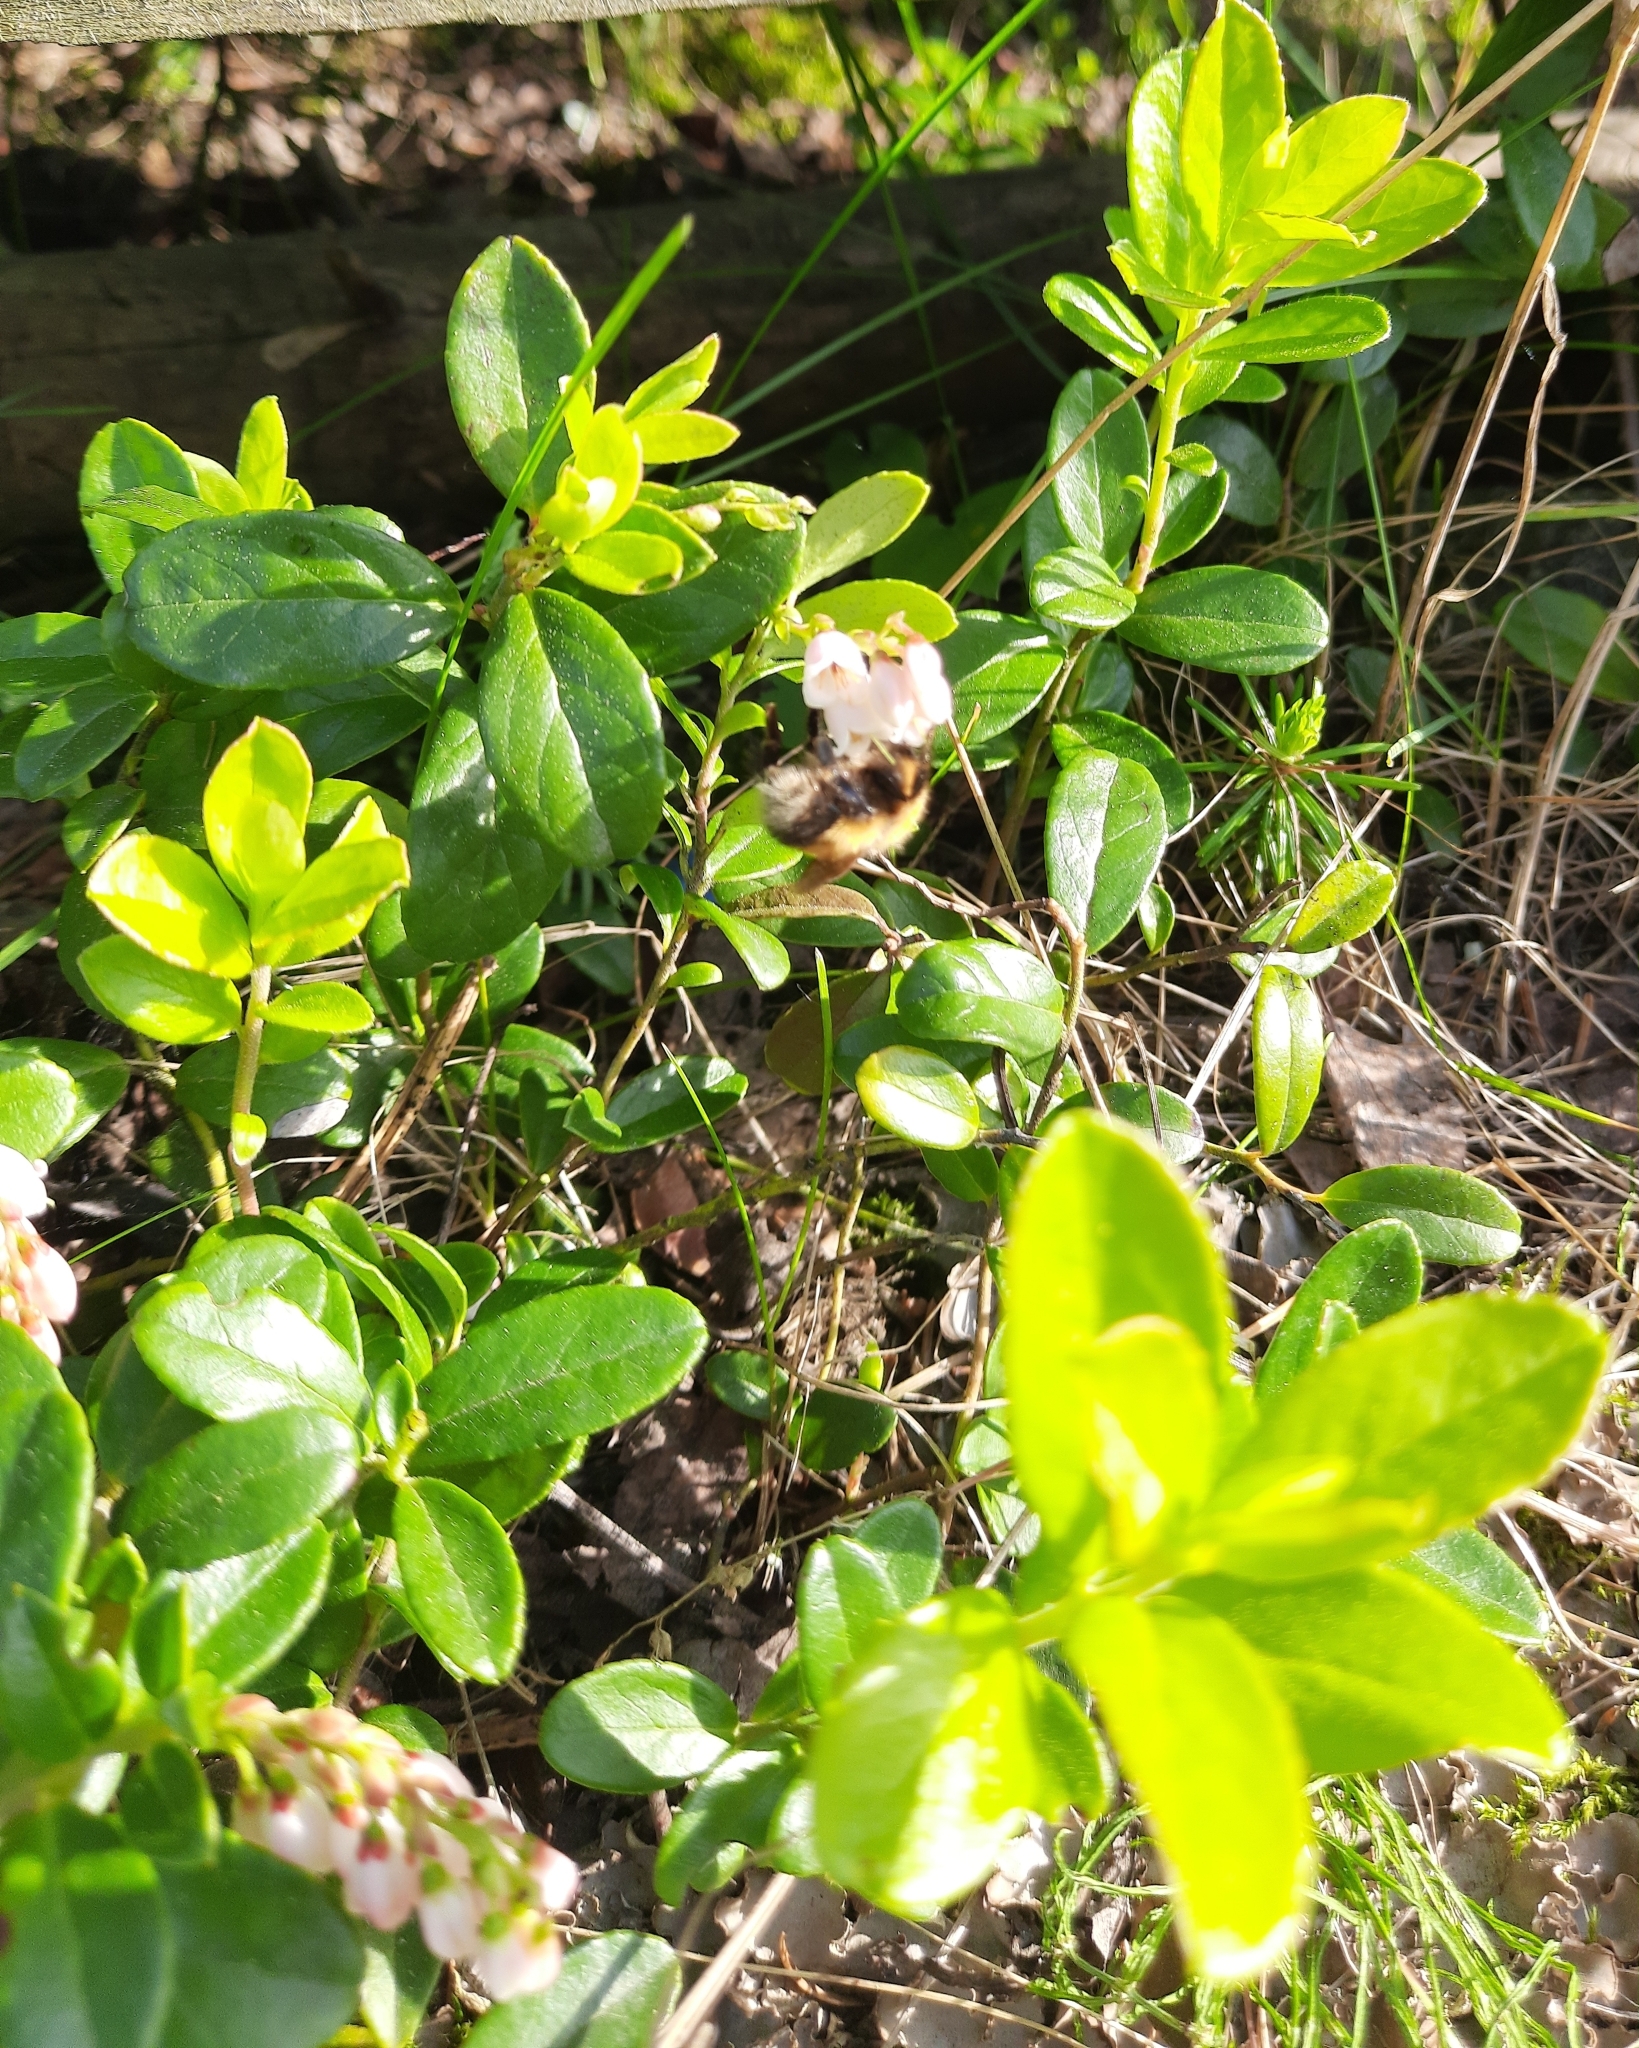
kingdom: Plantae
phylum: Tracheophyta
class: Magnoliopsida
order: Ericales
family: Ericaceae
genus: Vaccinium
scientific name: Vaccinium vitis-idaea
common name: Cowberry
